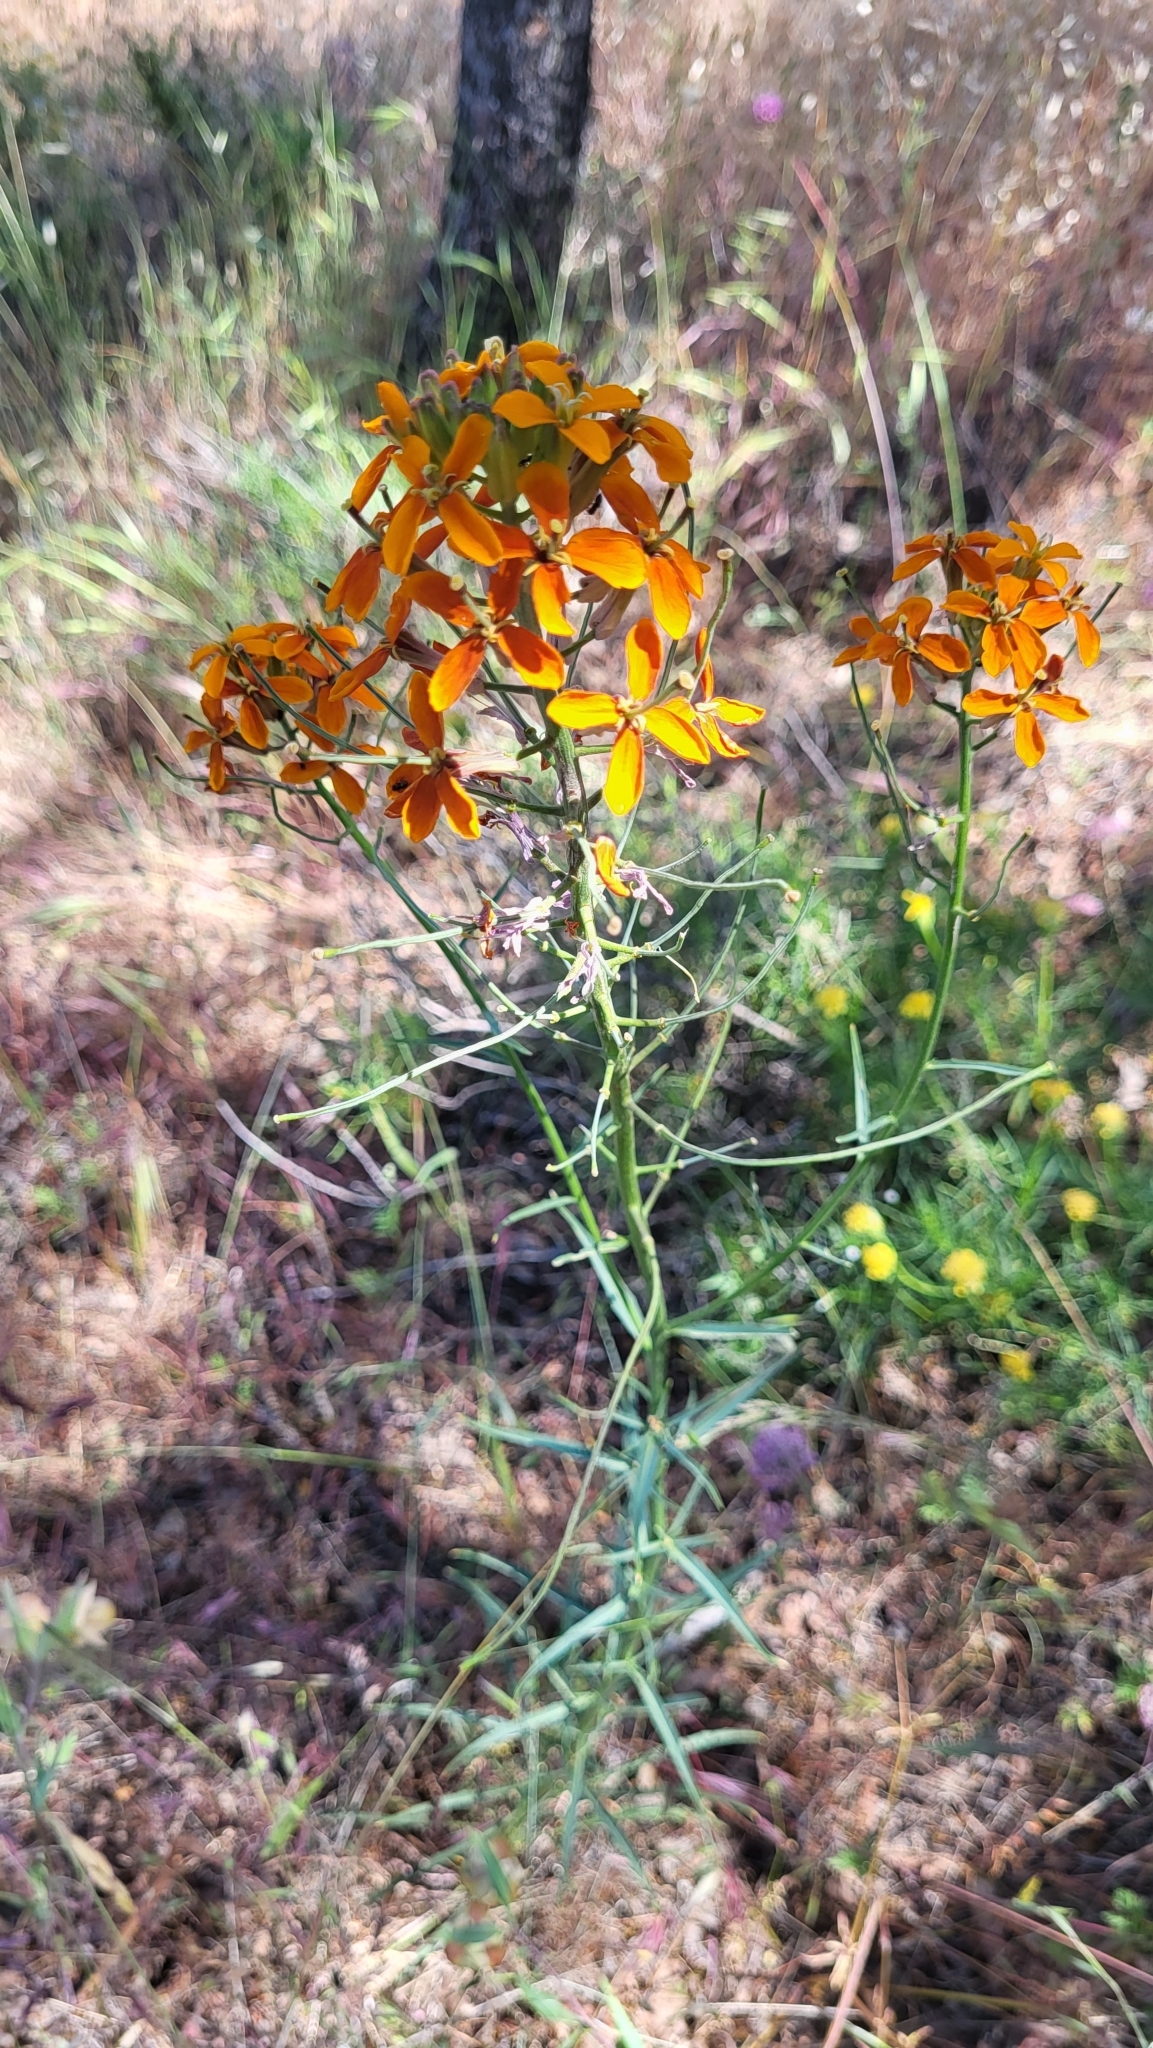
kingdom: Plantae
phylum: Tracheophyta
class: Magnoliopsida
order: Brassicales
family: Brassicaceae
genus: Erysimum
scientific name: Erysimum capitatum
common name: Western wallflower
